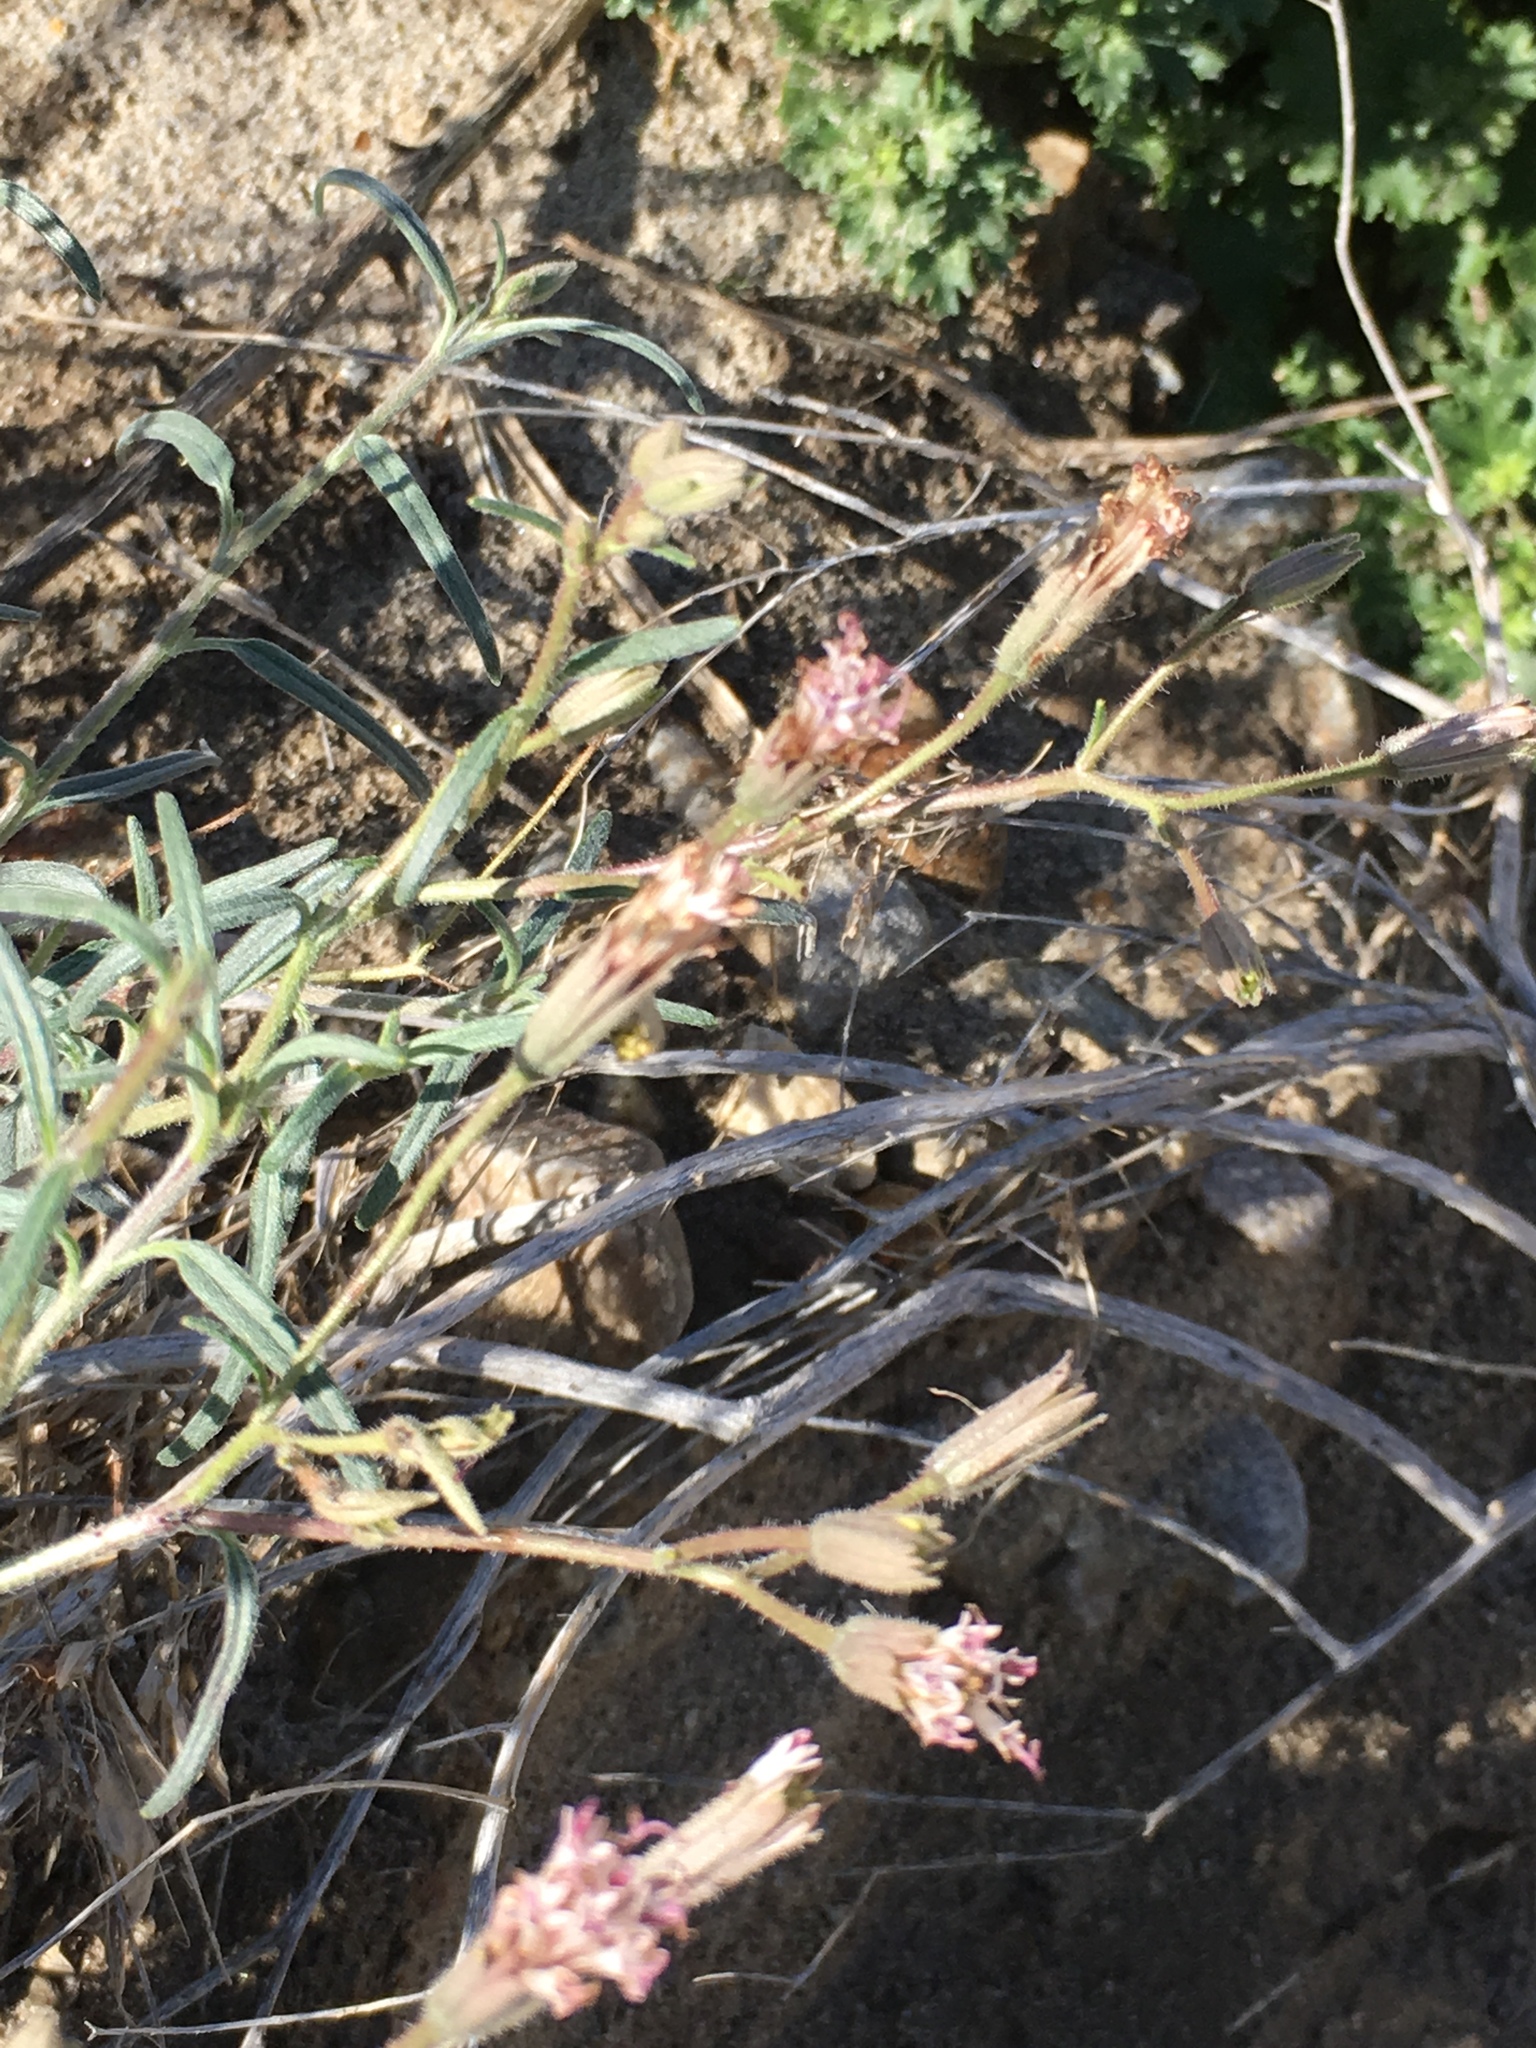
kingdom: Plantae
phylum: Tracheophyta
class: Magnoliopsida
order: Asterales
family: Asteraceae
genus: Palafoxia
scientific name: Palafoxia arida
